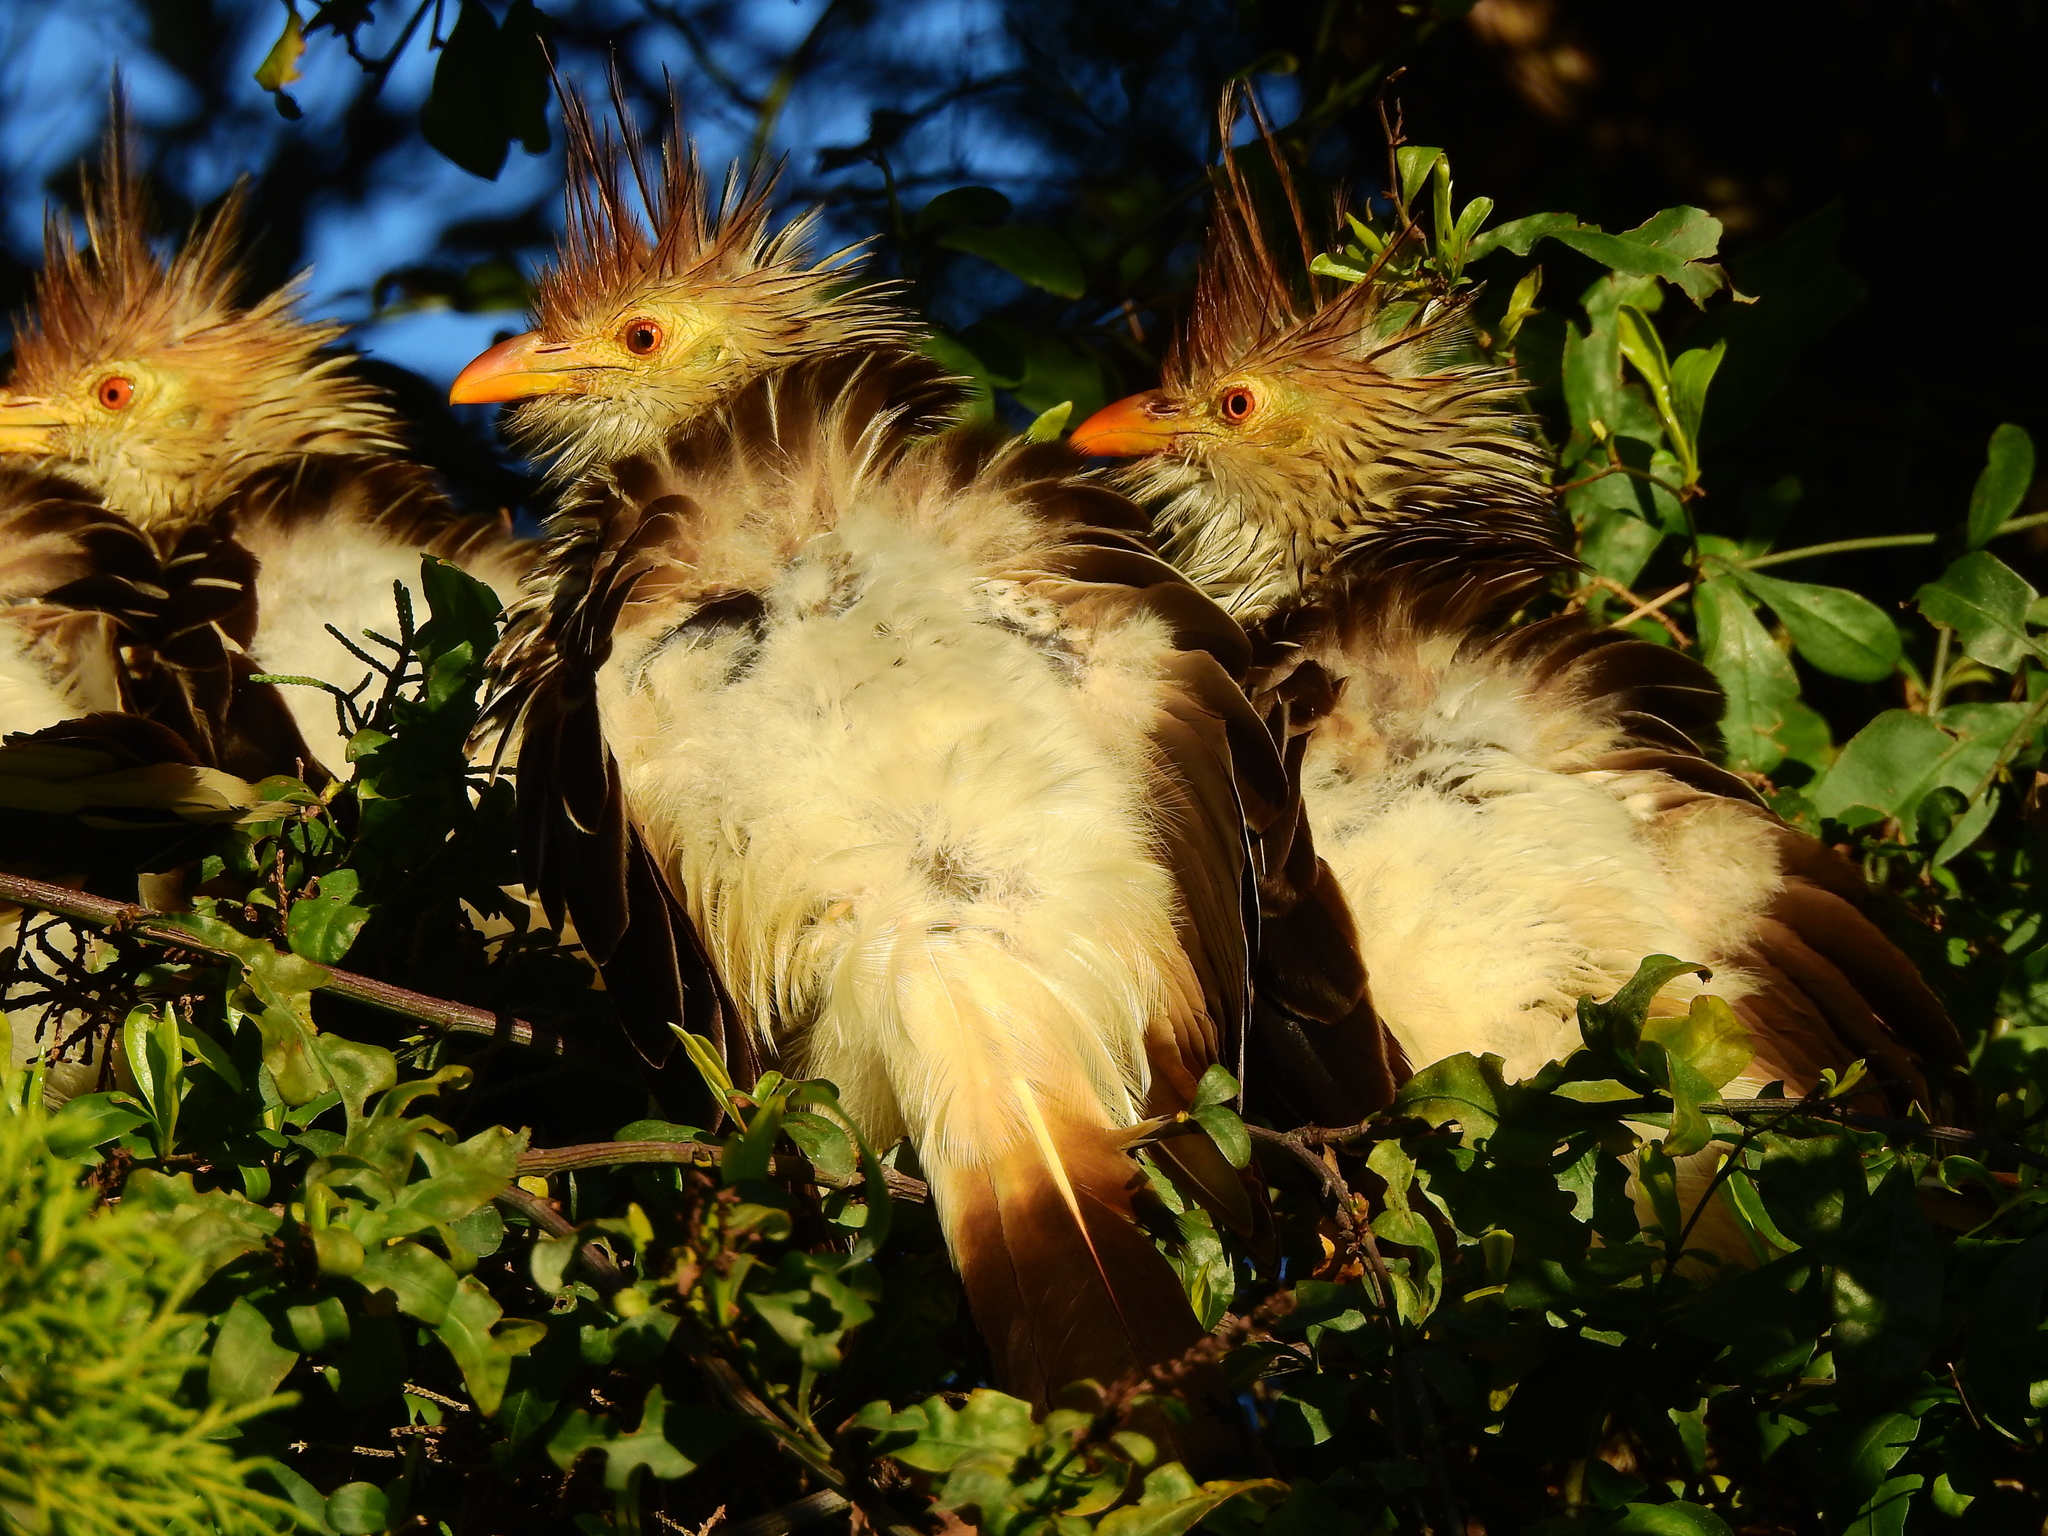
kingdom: Animalia
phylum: Chordata
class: Aves
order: Cuculiformes
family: Cuculidae
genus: Guira
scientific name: Guira guira
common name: Guira cuckoo
